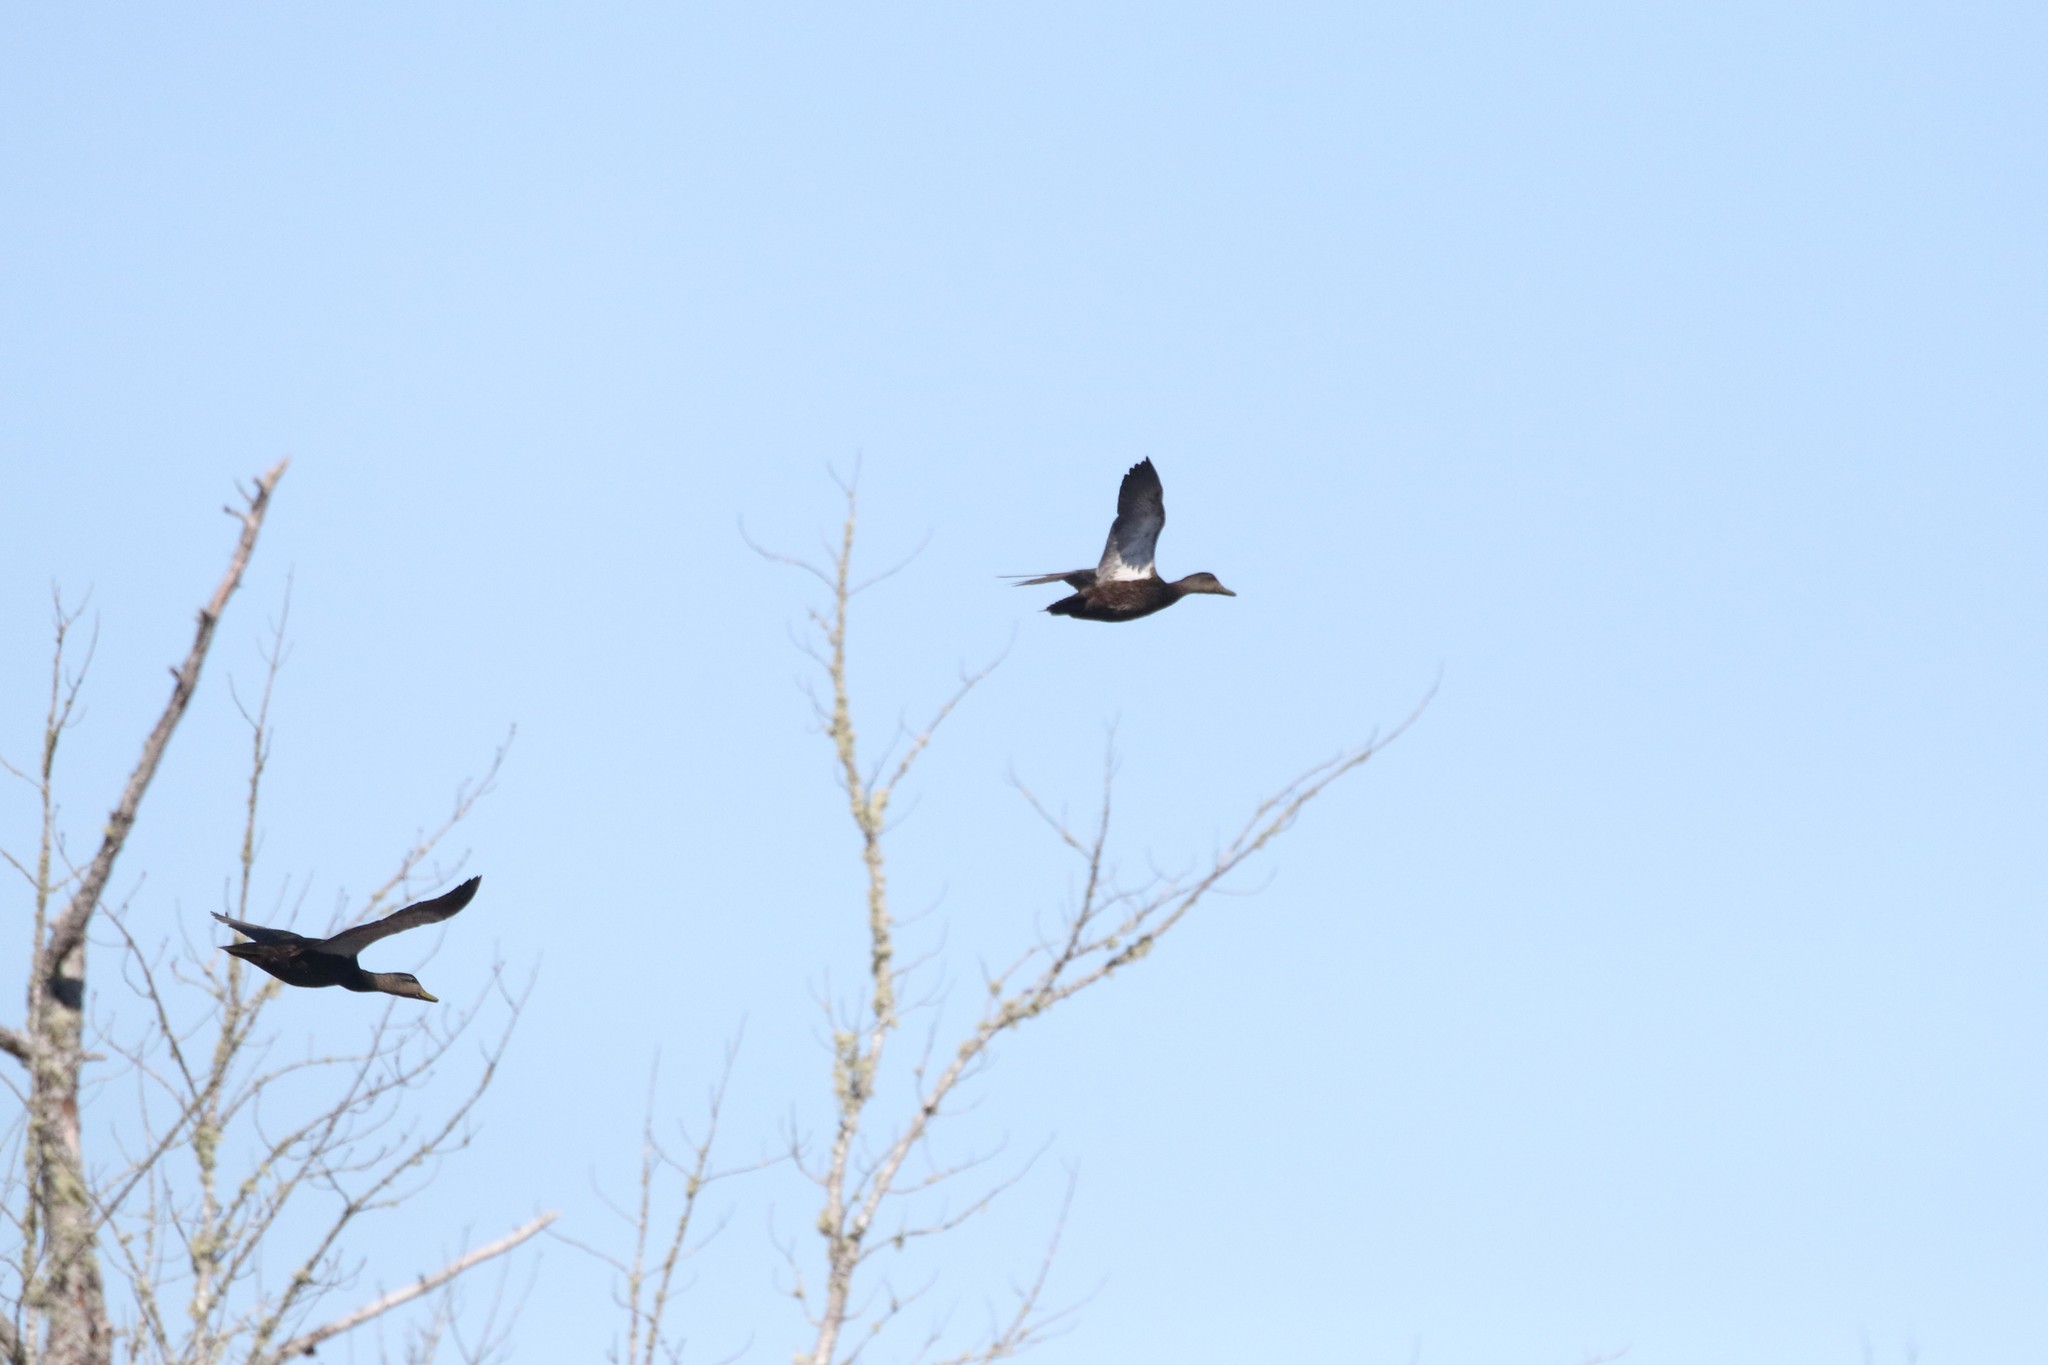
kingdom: Animalia
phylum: Chordata
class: Aves
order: Anseriformes
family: Anatidae
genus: Anas
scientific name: Anas rubripes
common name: American black duck
